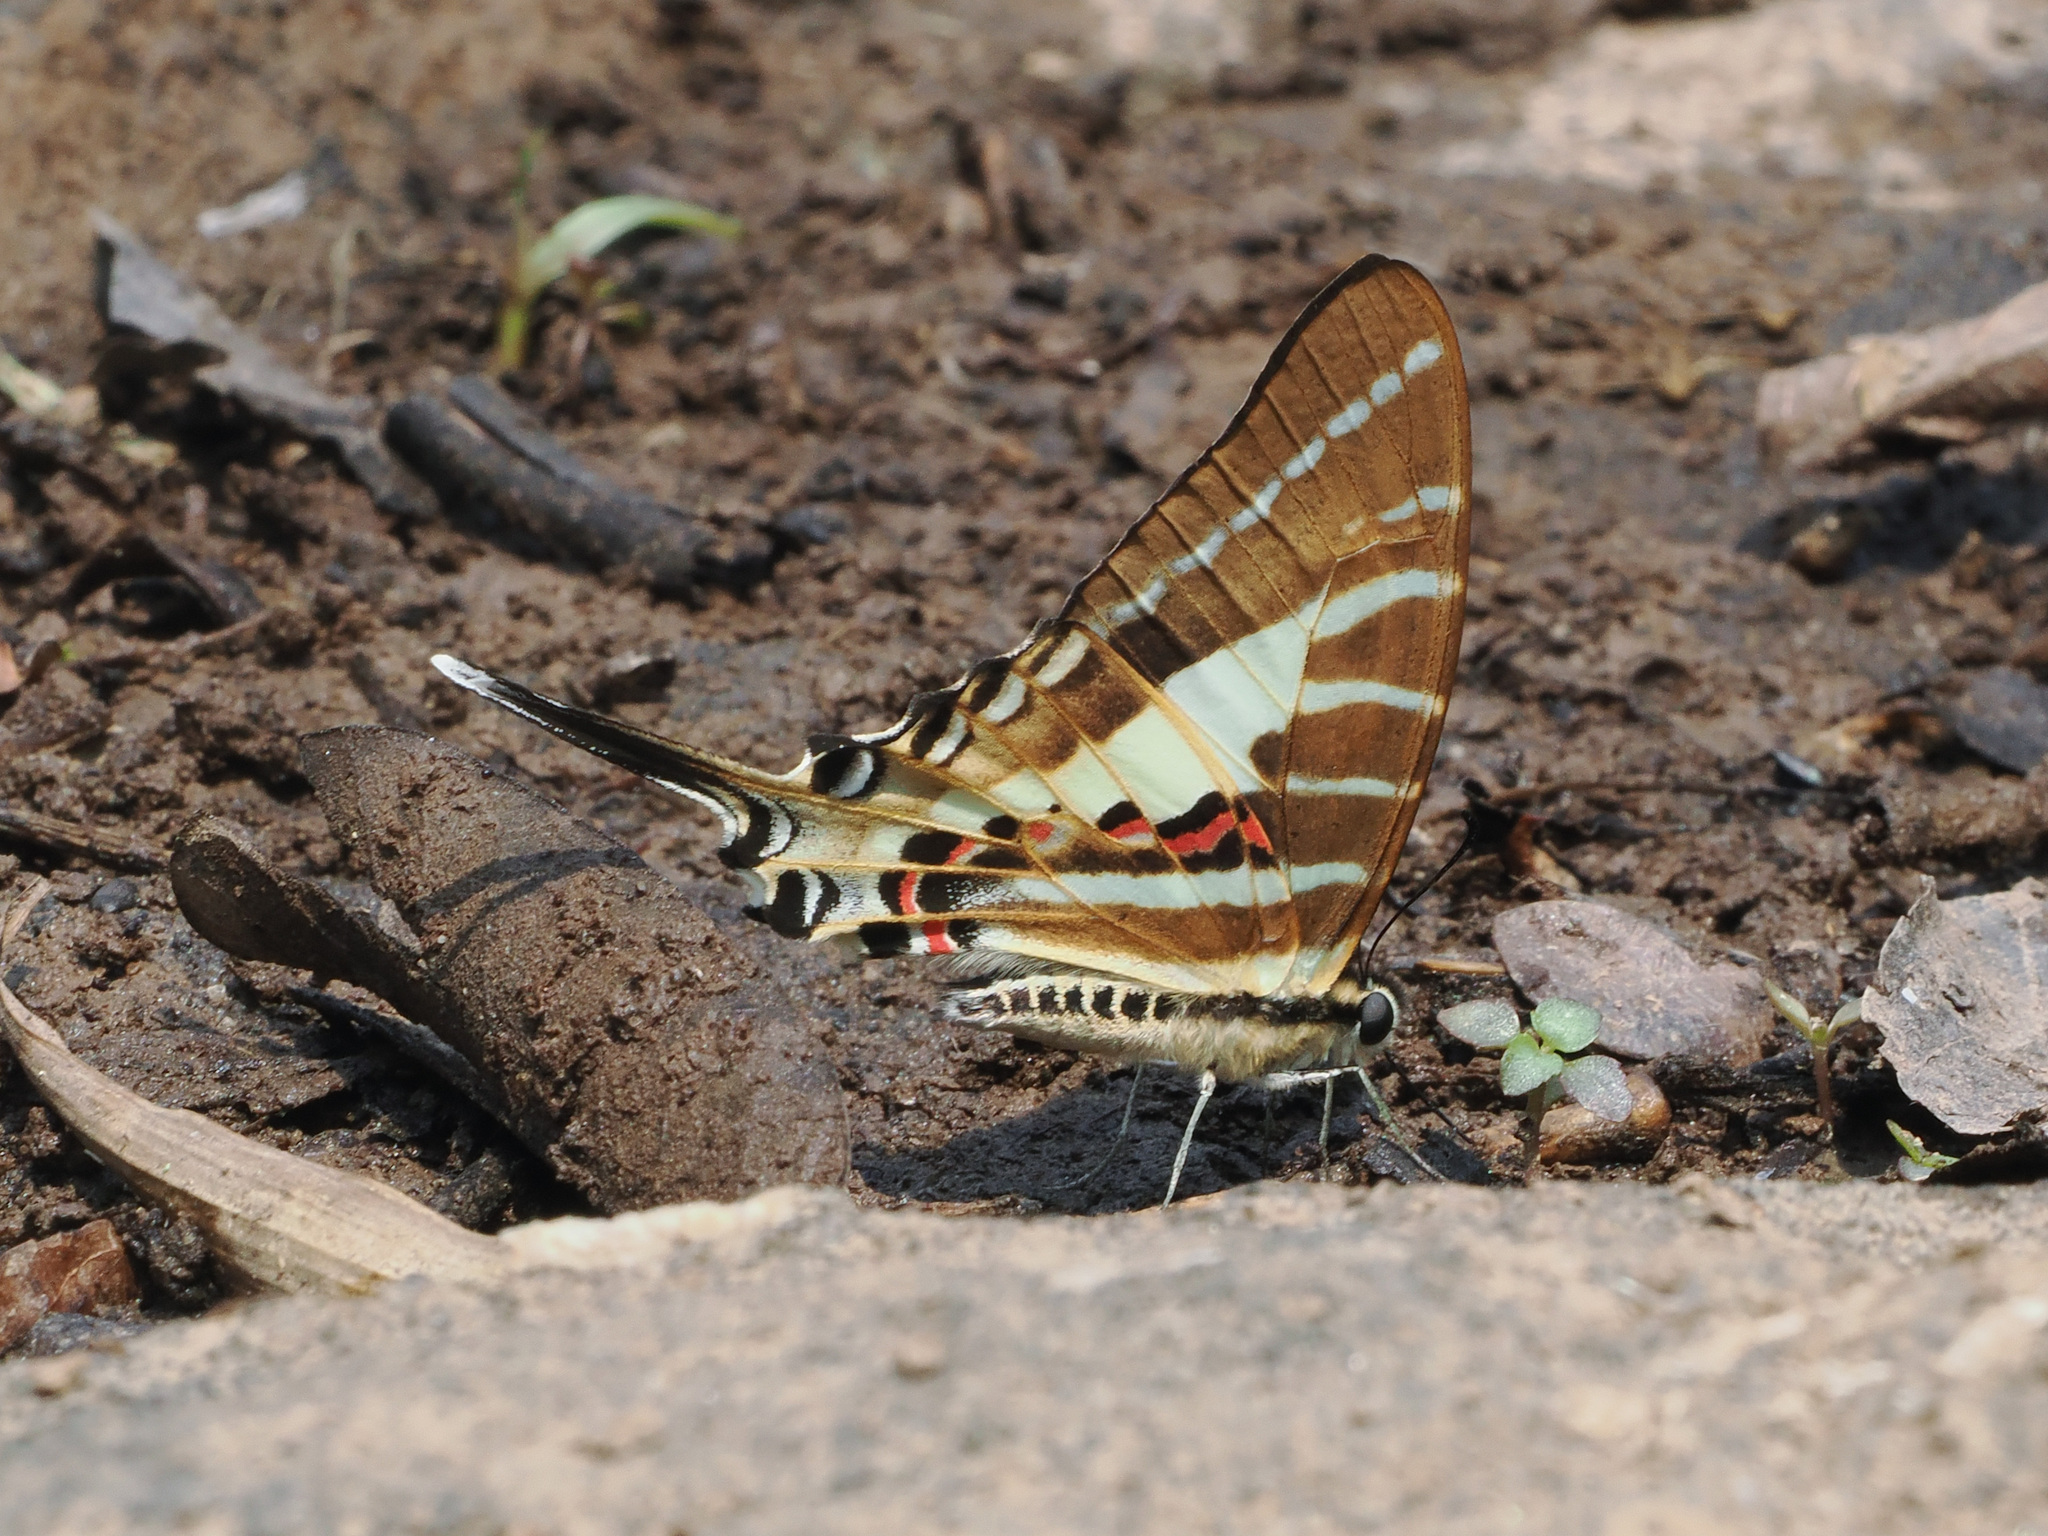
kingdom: Animalia
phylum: Arthropoda
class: Insecta
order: Lepidoptera
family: Papilionidae
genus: Graphium
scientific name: Graphium aristeus
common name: Chain swordtail
